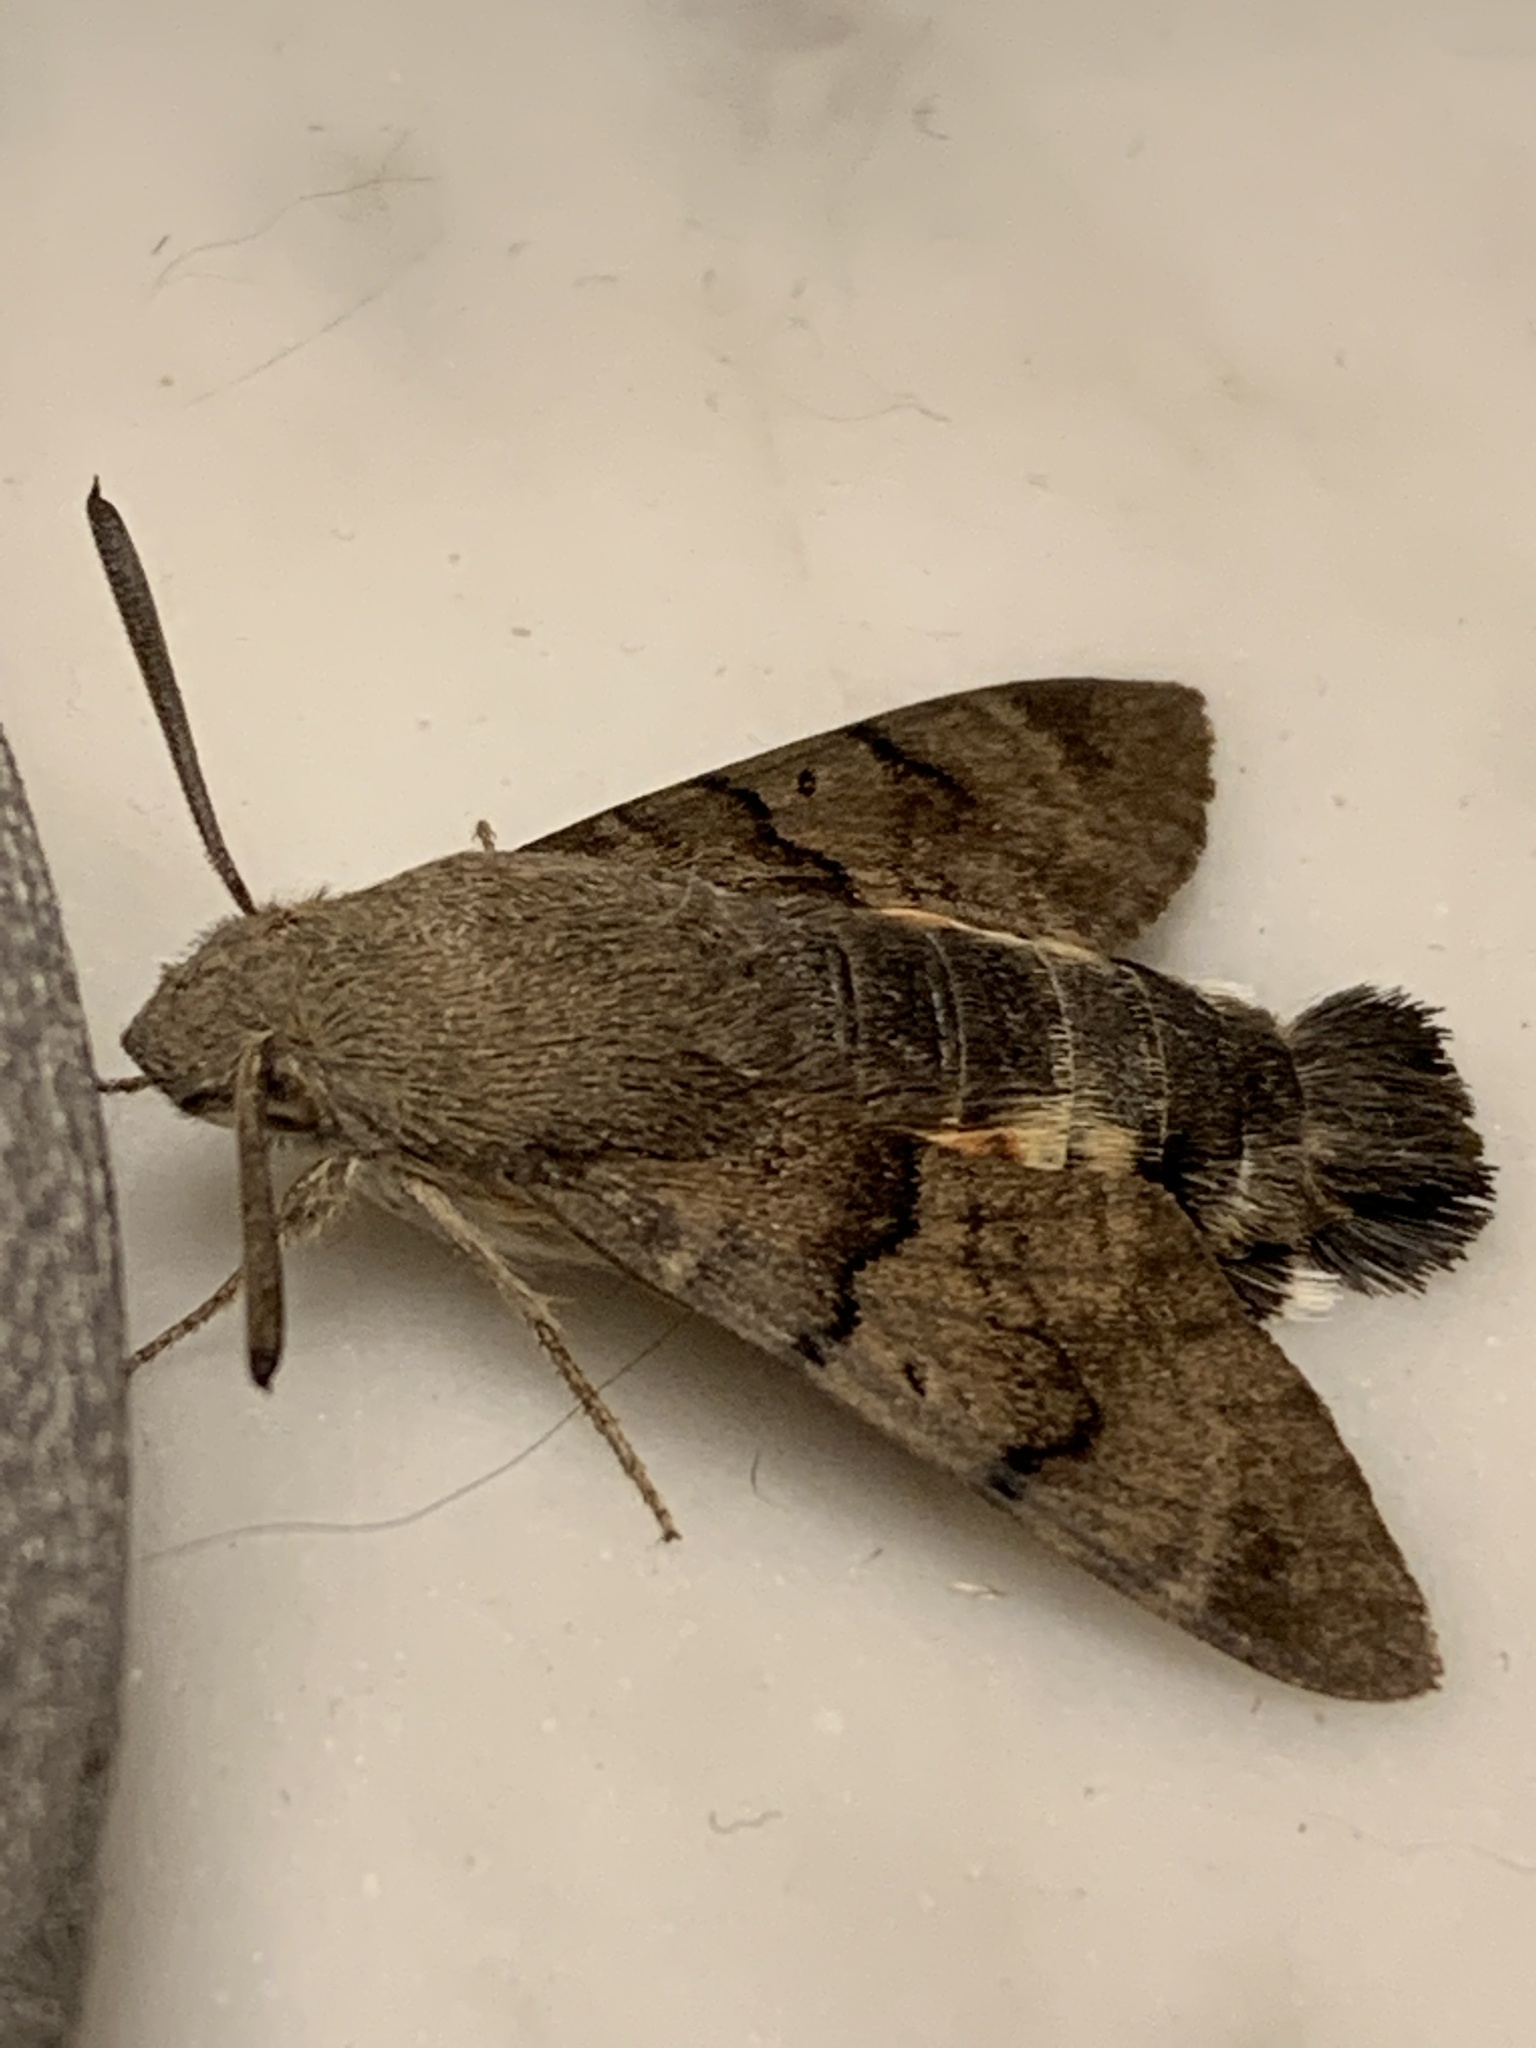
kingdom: Animalia
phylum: Arthropoda
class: Insecta
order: Lepidoptera
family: Sphingidae
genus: Macroglossum
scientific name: Macroglossum stellatarum
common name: Humming-bird hawk-moth
